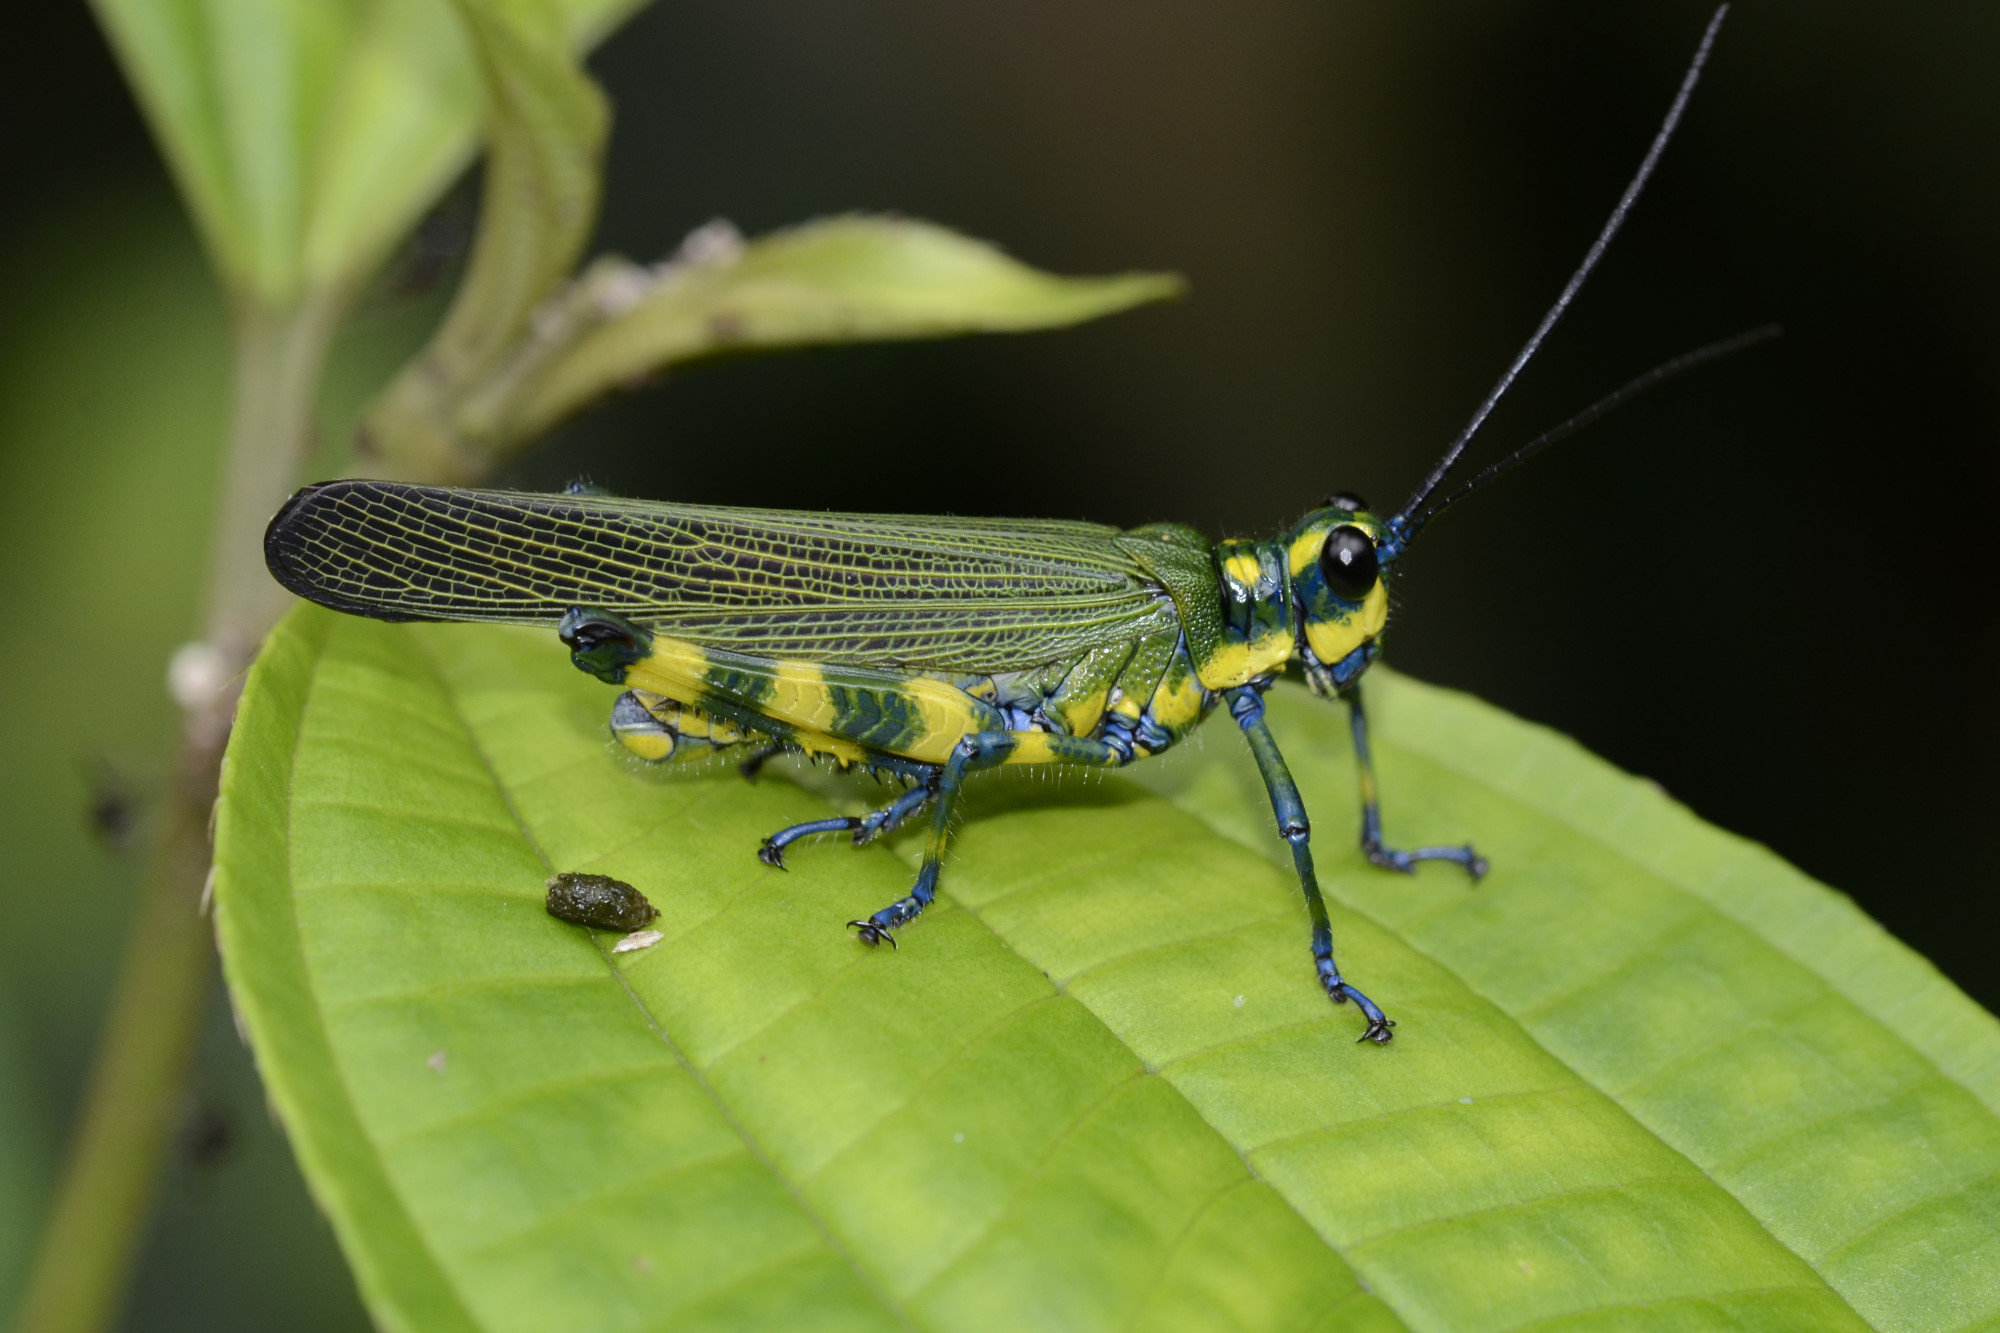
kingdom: Animalia
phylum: Arthropoda
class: Insecta
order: Orthoptera
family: Romaleidae
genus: Chromacris
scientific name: Chromacris psittacus
